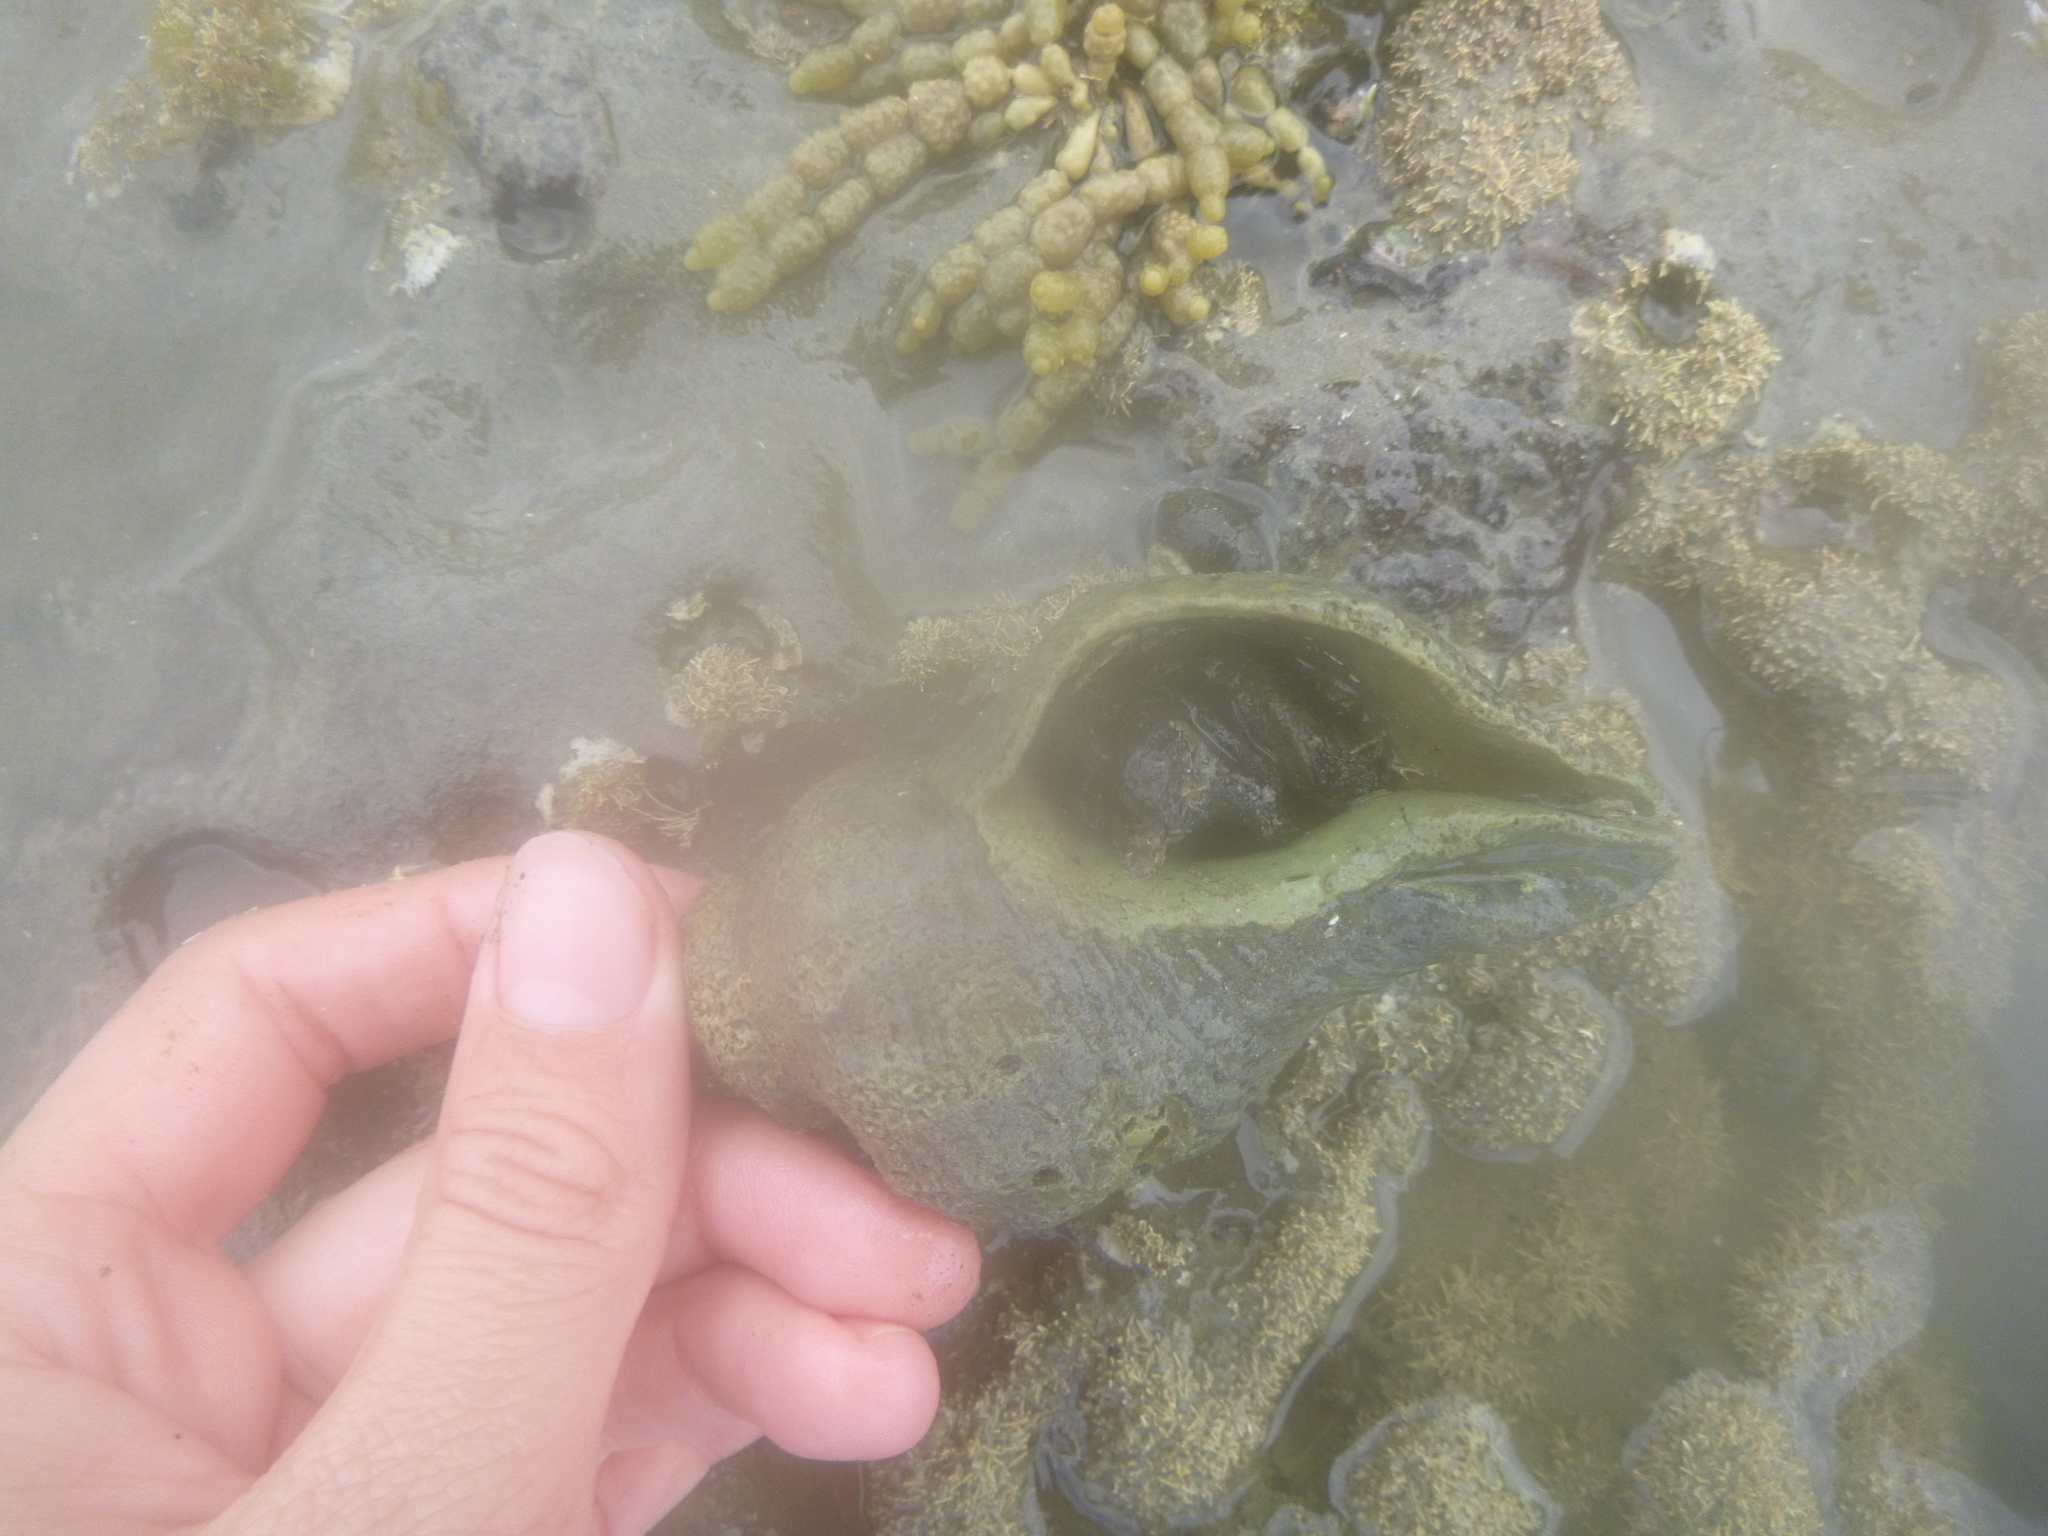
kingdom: Animalia
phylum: Mollusca
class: Gastropoda
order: Neogastropoda
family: Austrosiphonidae
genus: Penion
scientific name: Penion sulcatus
